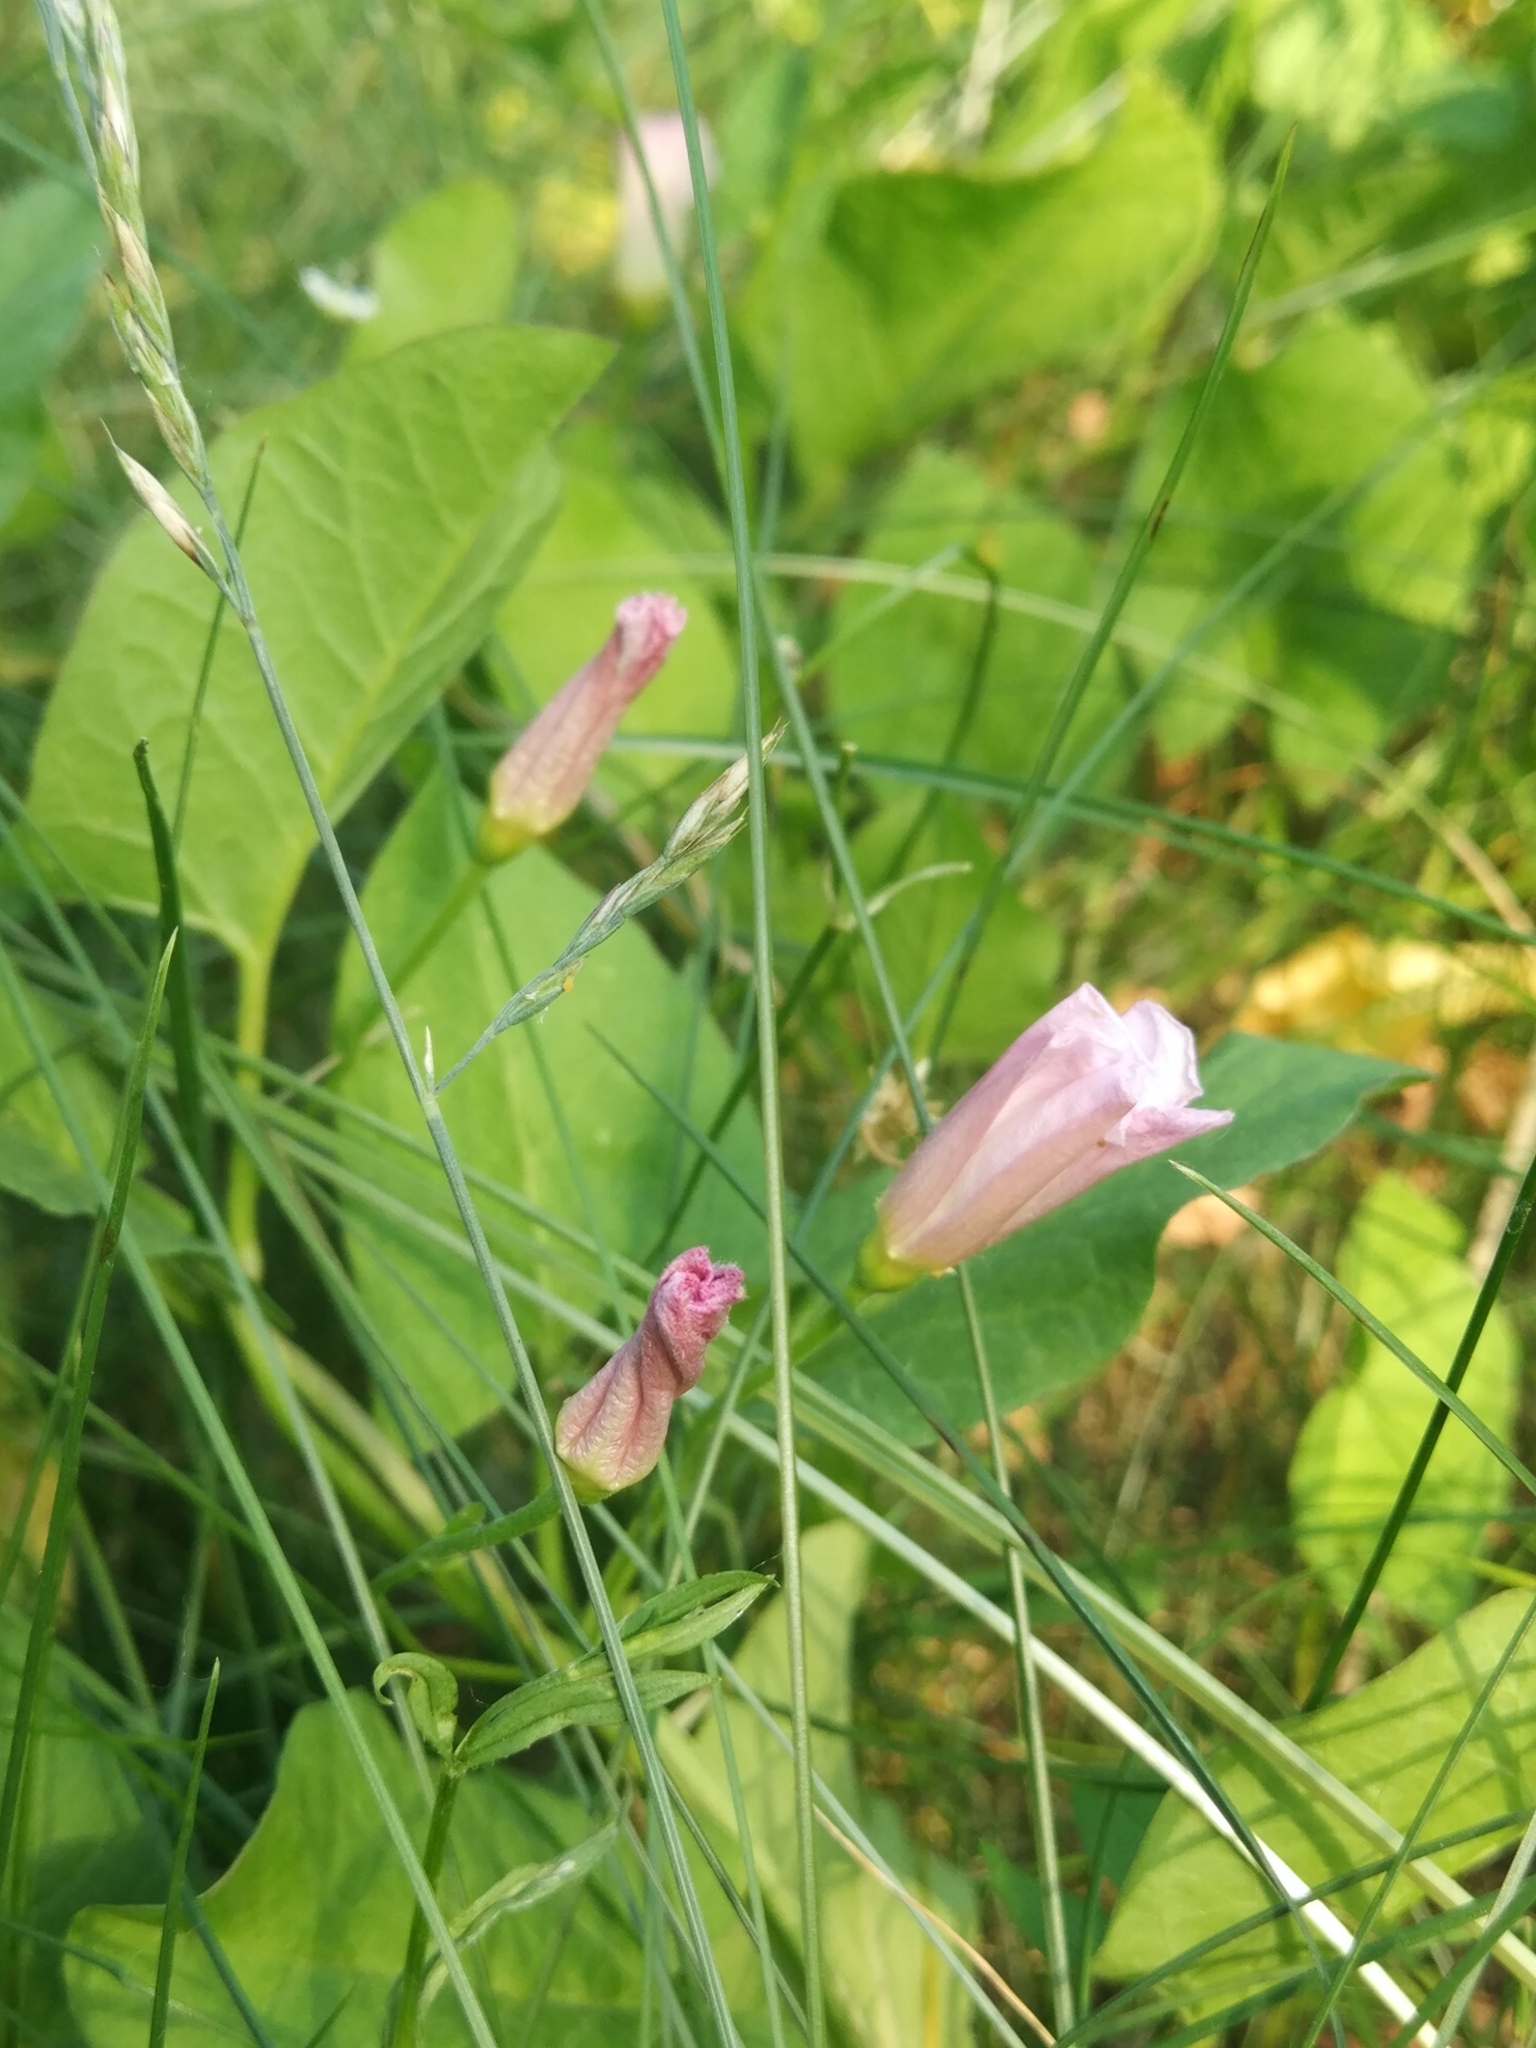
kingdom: Plantae
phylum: Tracheophyta
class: Magnoliopsida
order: Solanales
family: Convolvulaceae
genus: Convolvulus
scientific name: Convolvulus arvensis
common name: Field bindweed
